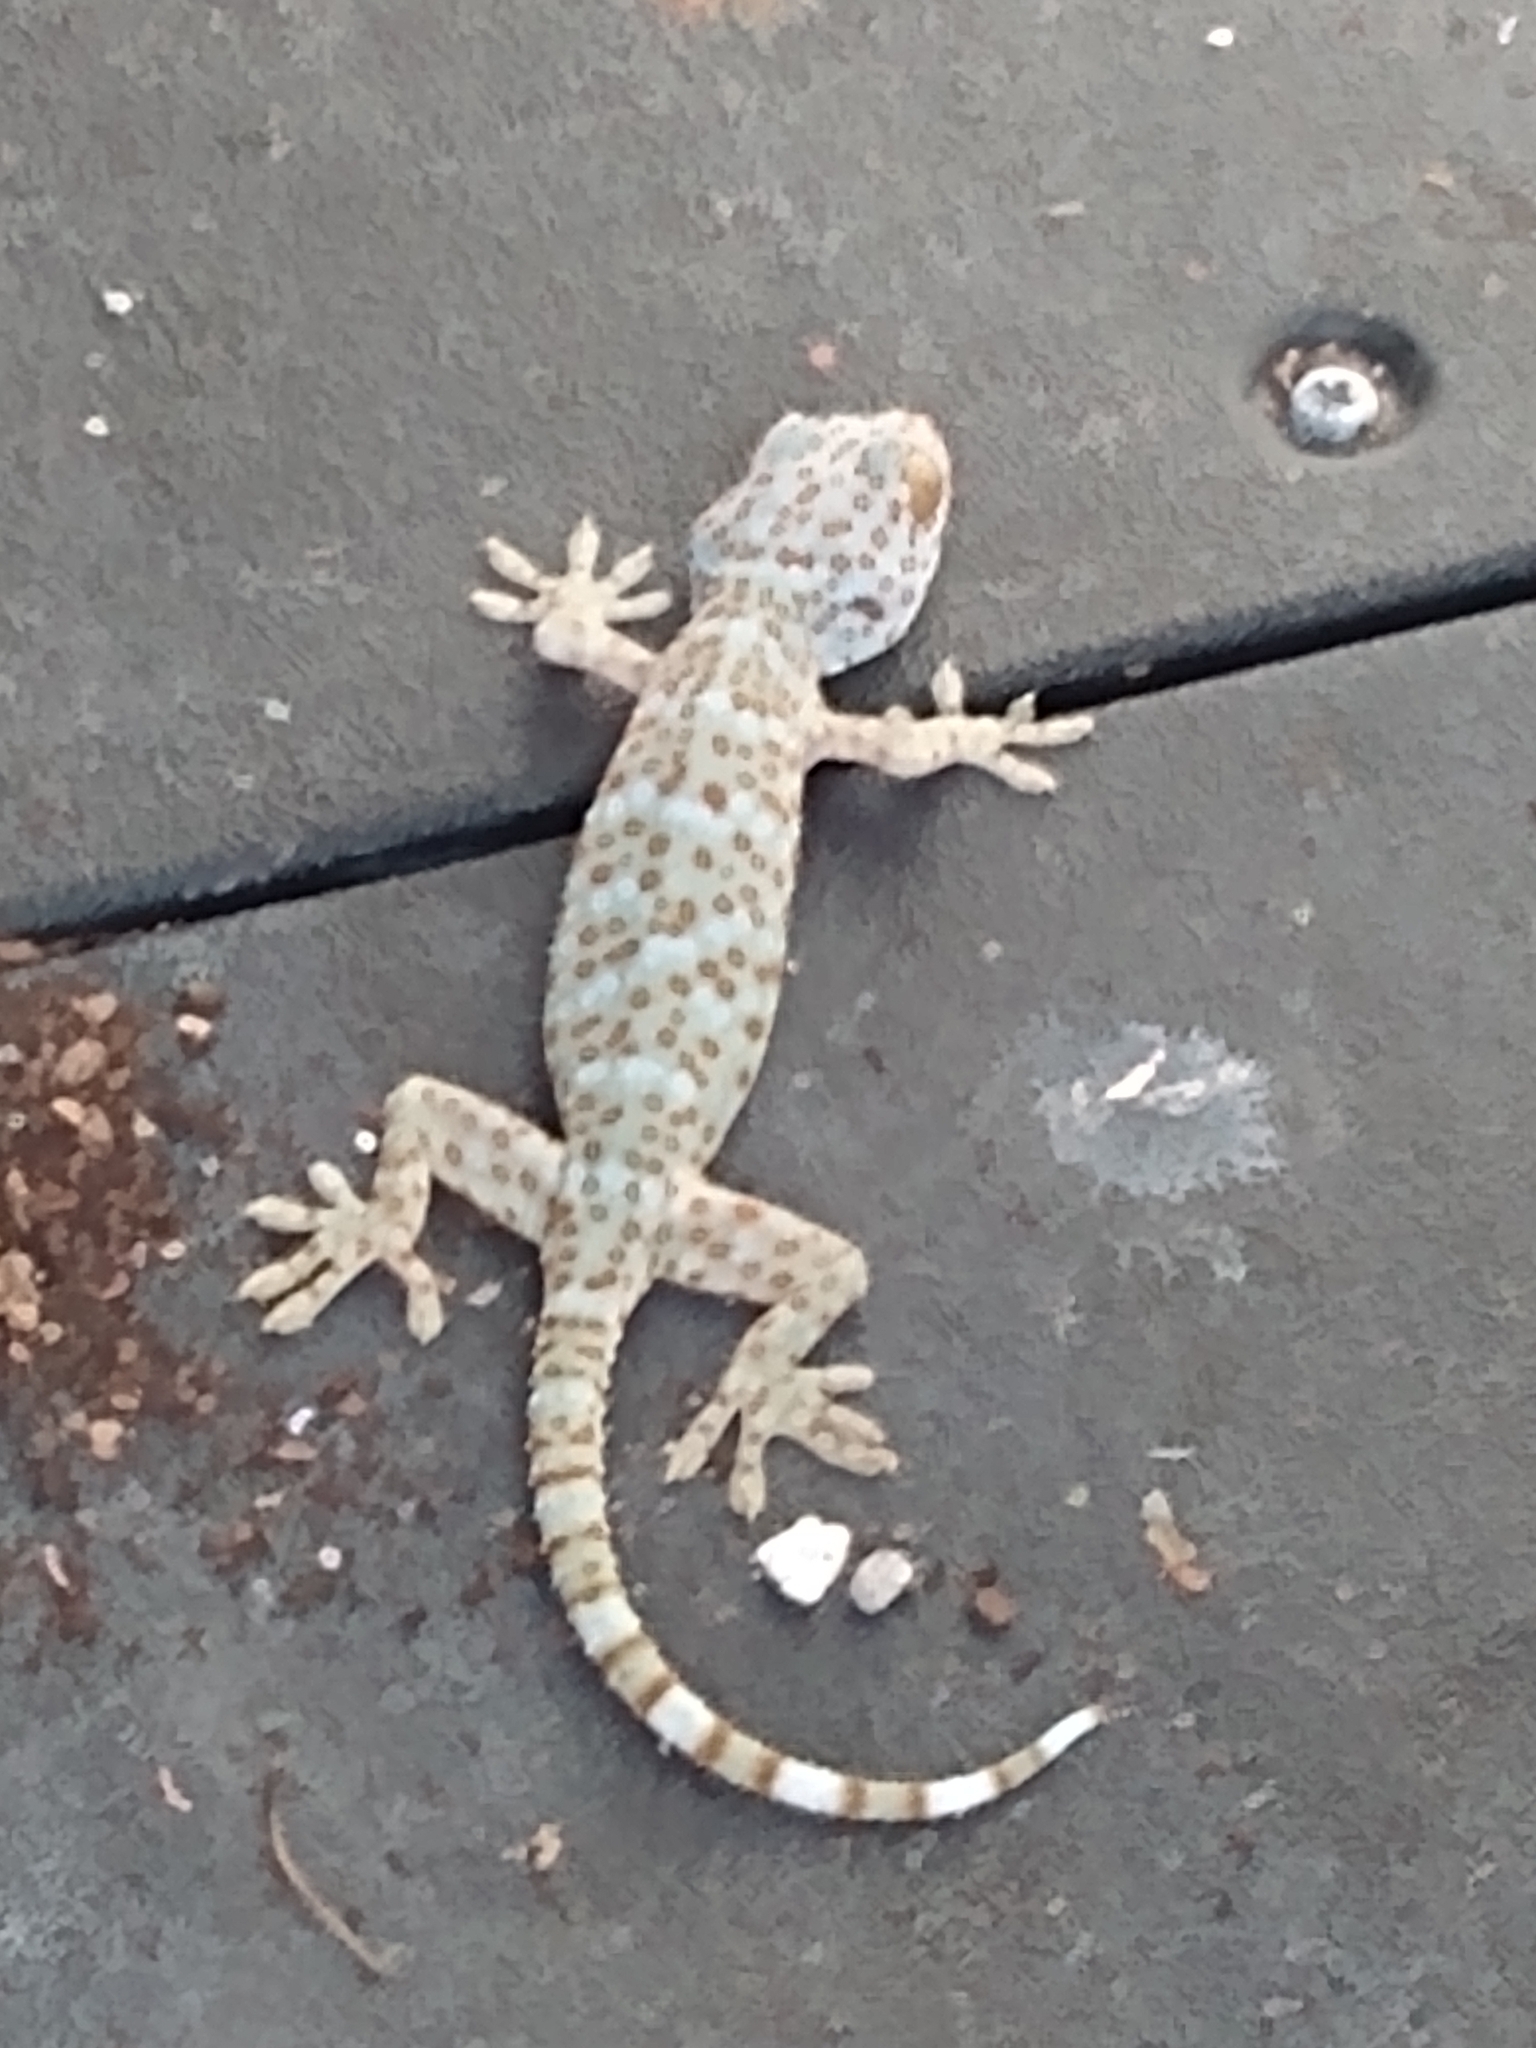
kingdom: Animalia
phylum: Chordata
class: Squamata
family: Gekkonidae
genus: Gekko
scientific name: Gekko gecko
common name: Tokay gecko
